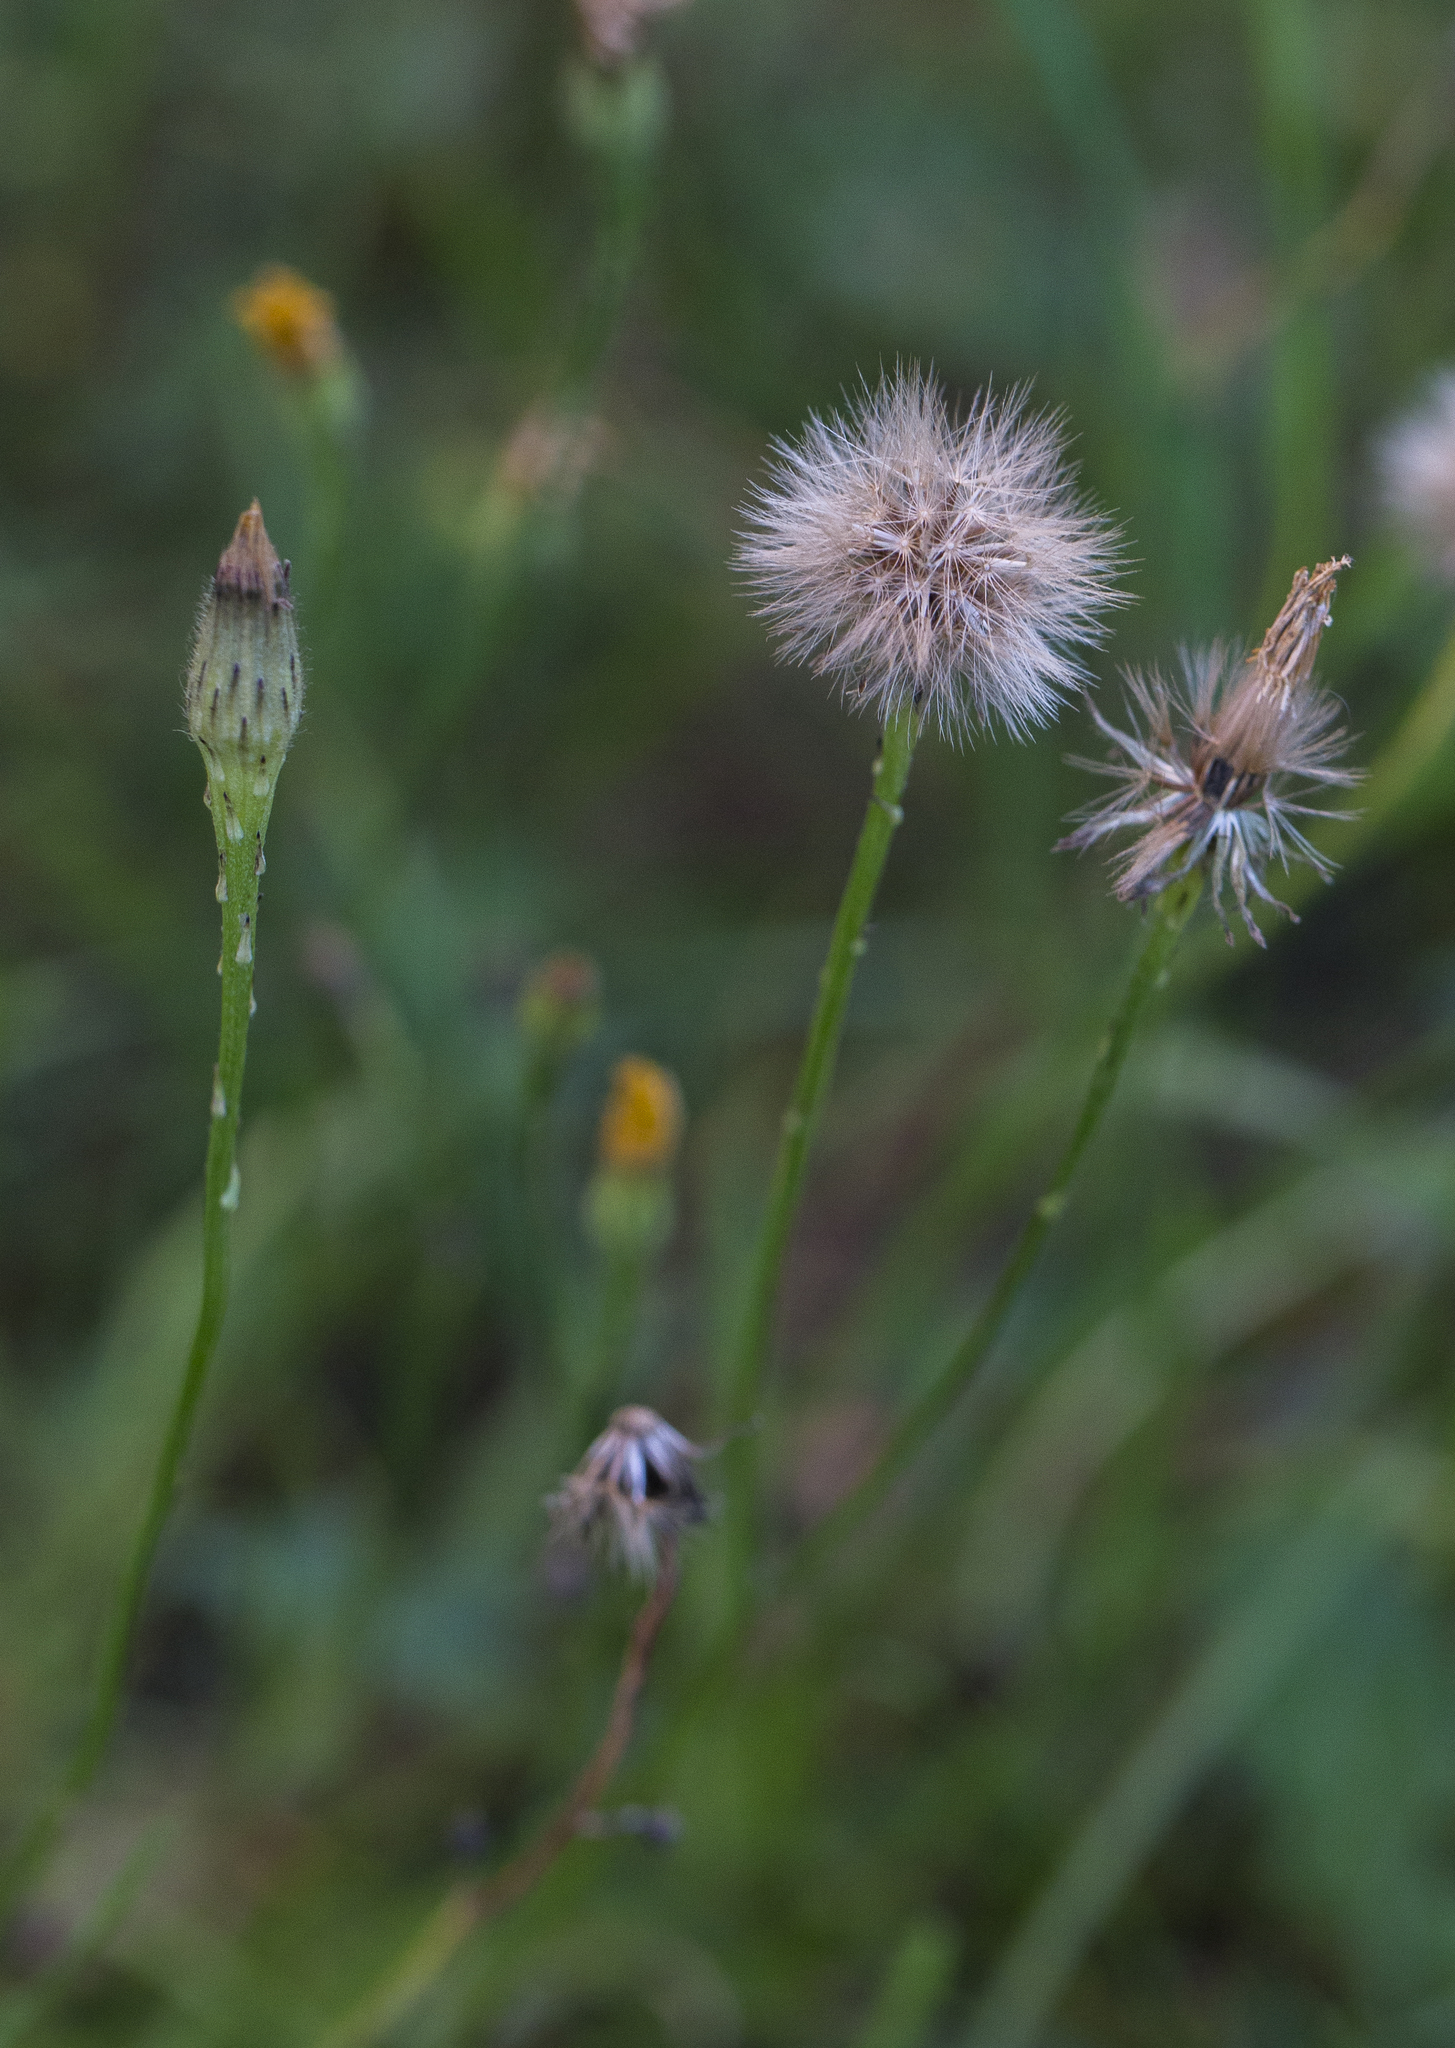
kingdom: Plantae
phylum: Tracheophyta
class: Magnoliopsida
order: Asterales
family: Asteraceae
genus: Scorzoneroides
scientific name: Scorzoneroides autumnalis
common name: Autumn hawkbit
